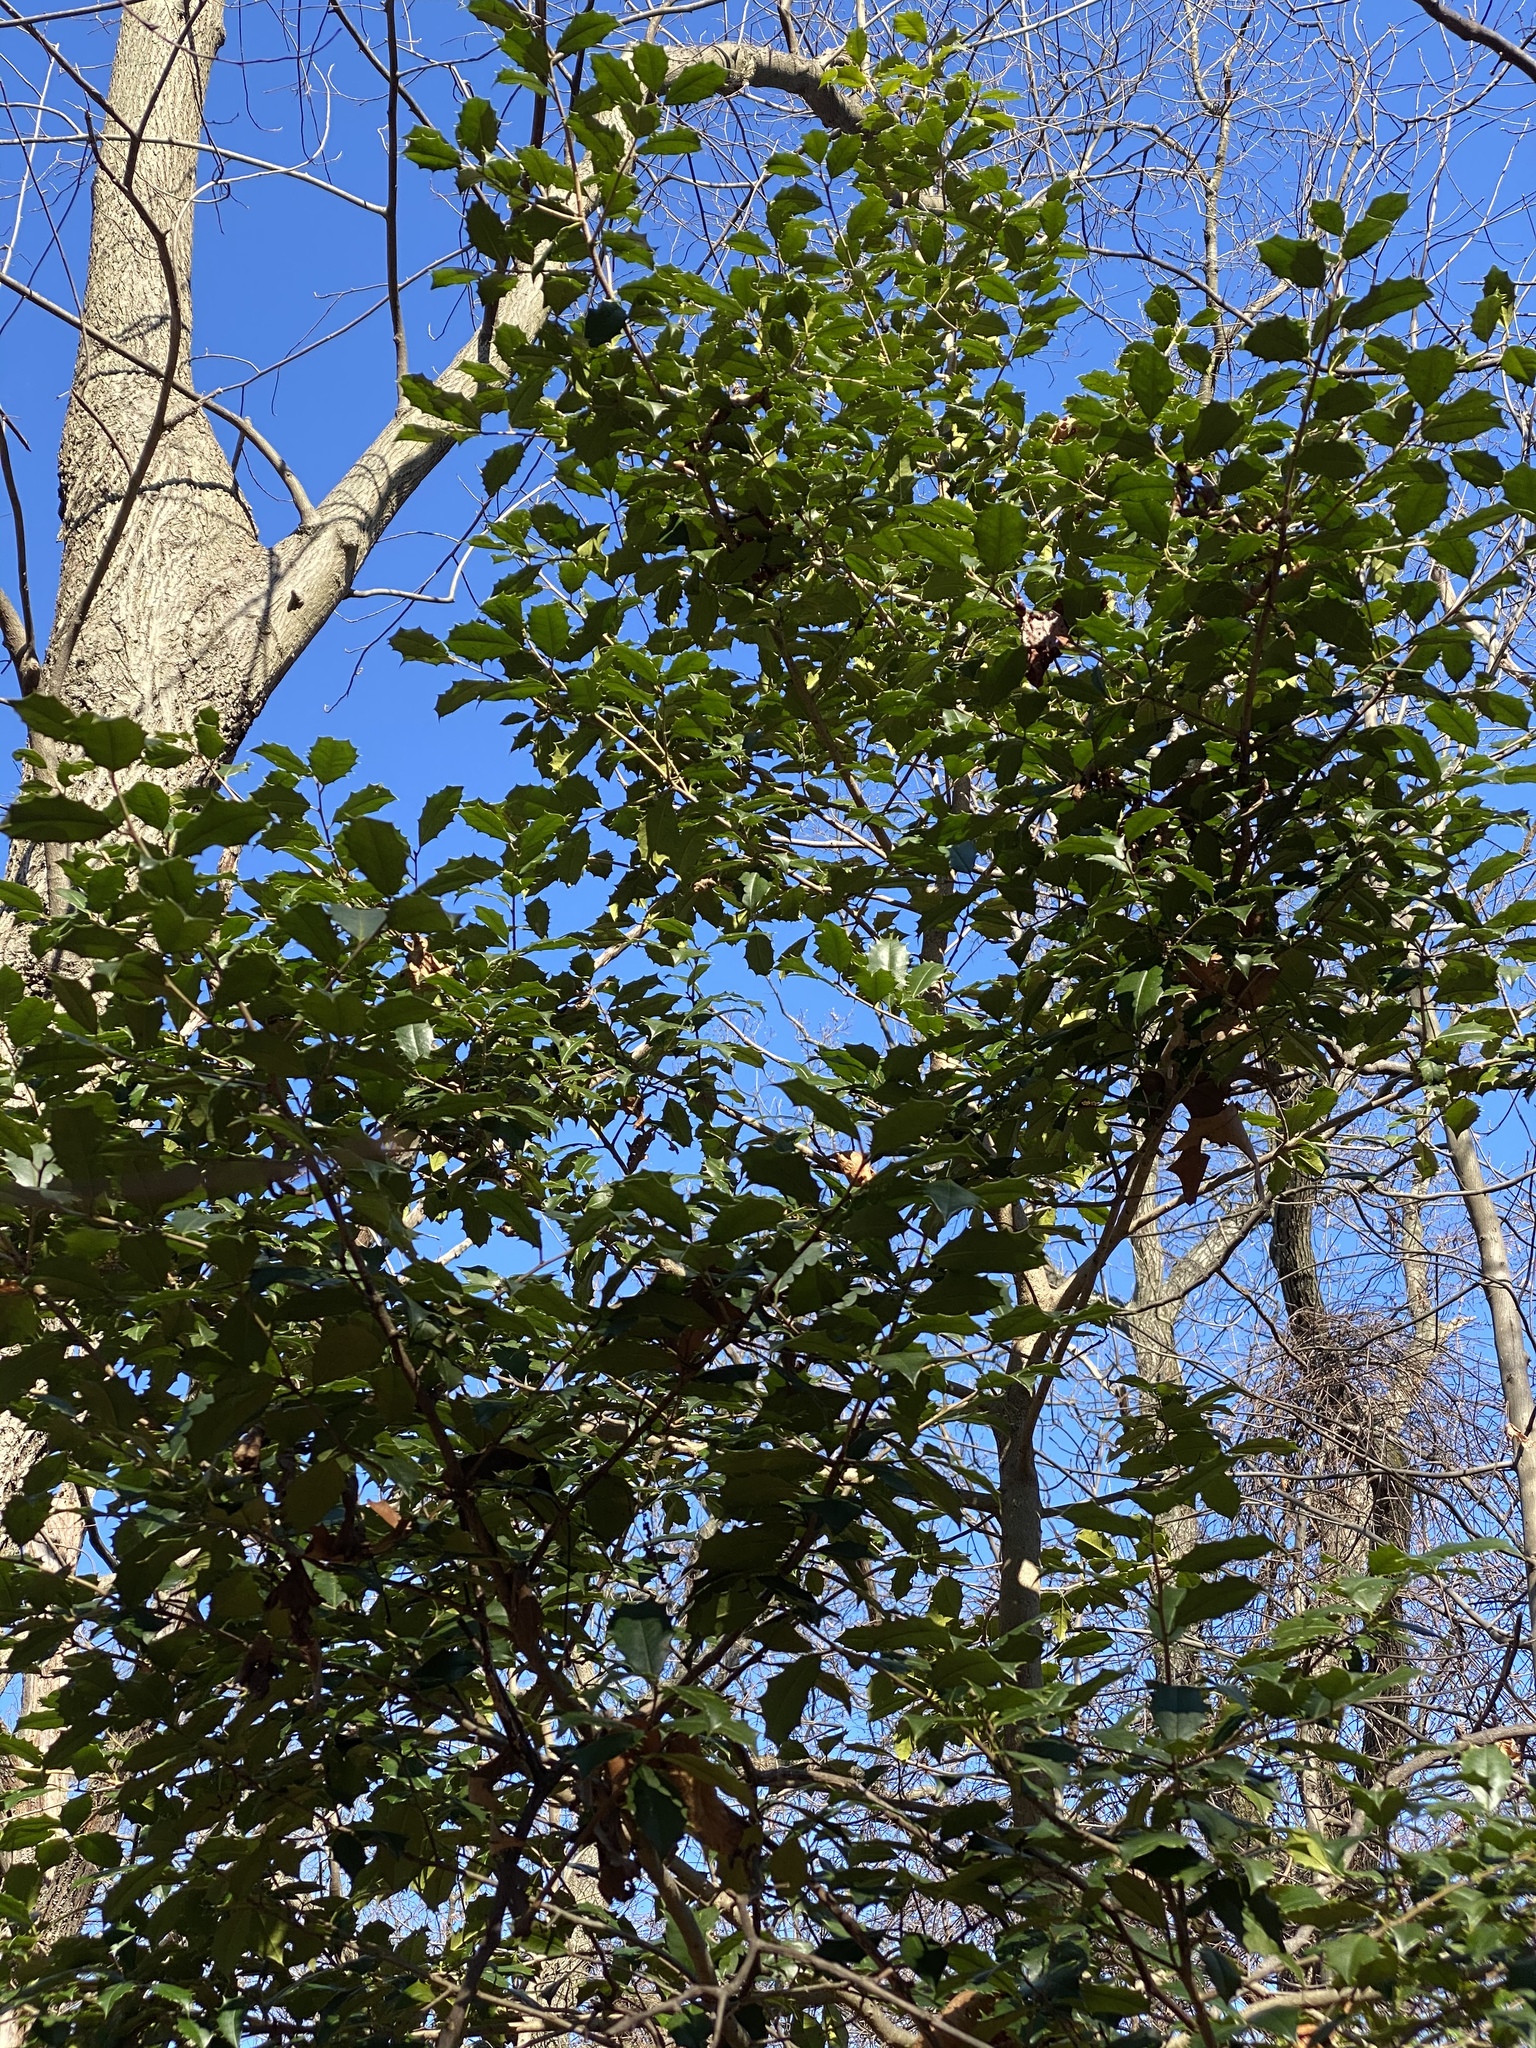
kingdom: Plantae
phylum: Tracheophyta
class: Magnoliopsida
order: Aquifoliales
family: Aquifoliaceae
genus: Ilex
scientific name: Ilex opaca
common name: American holly
